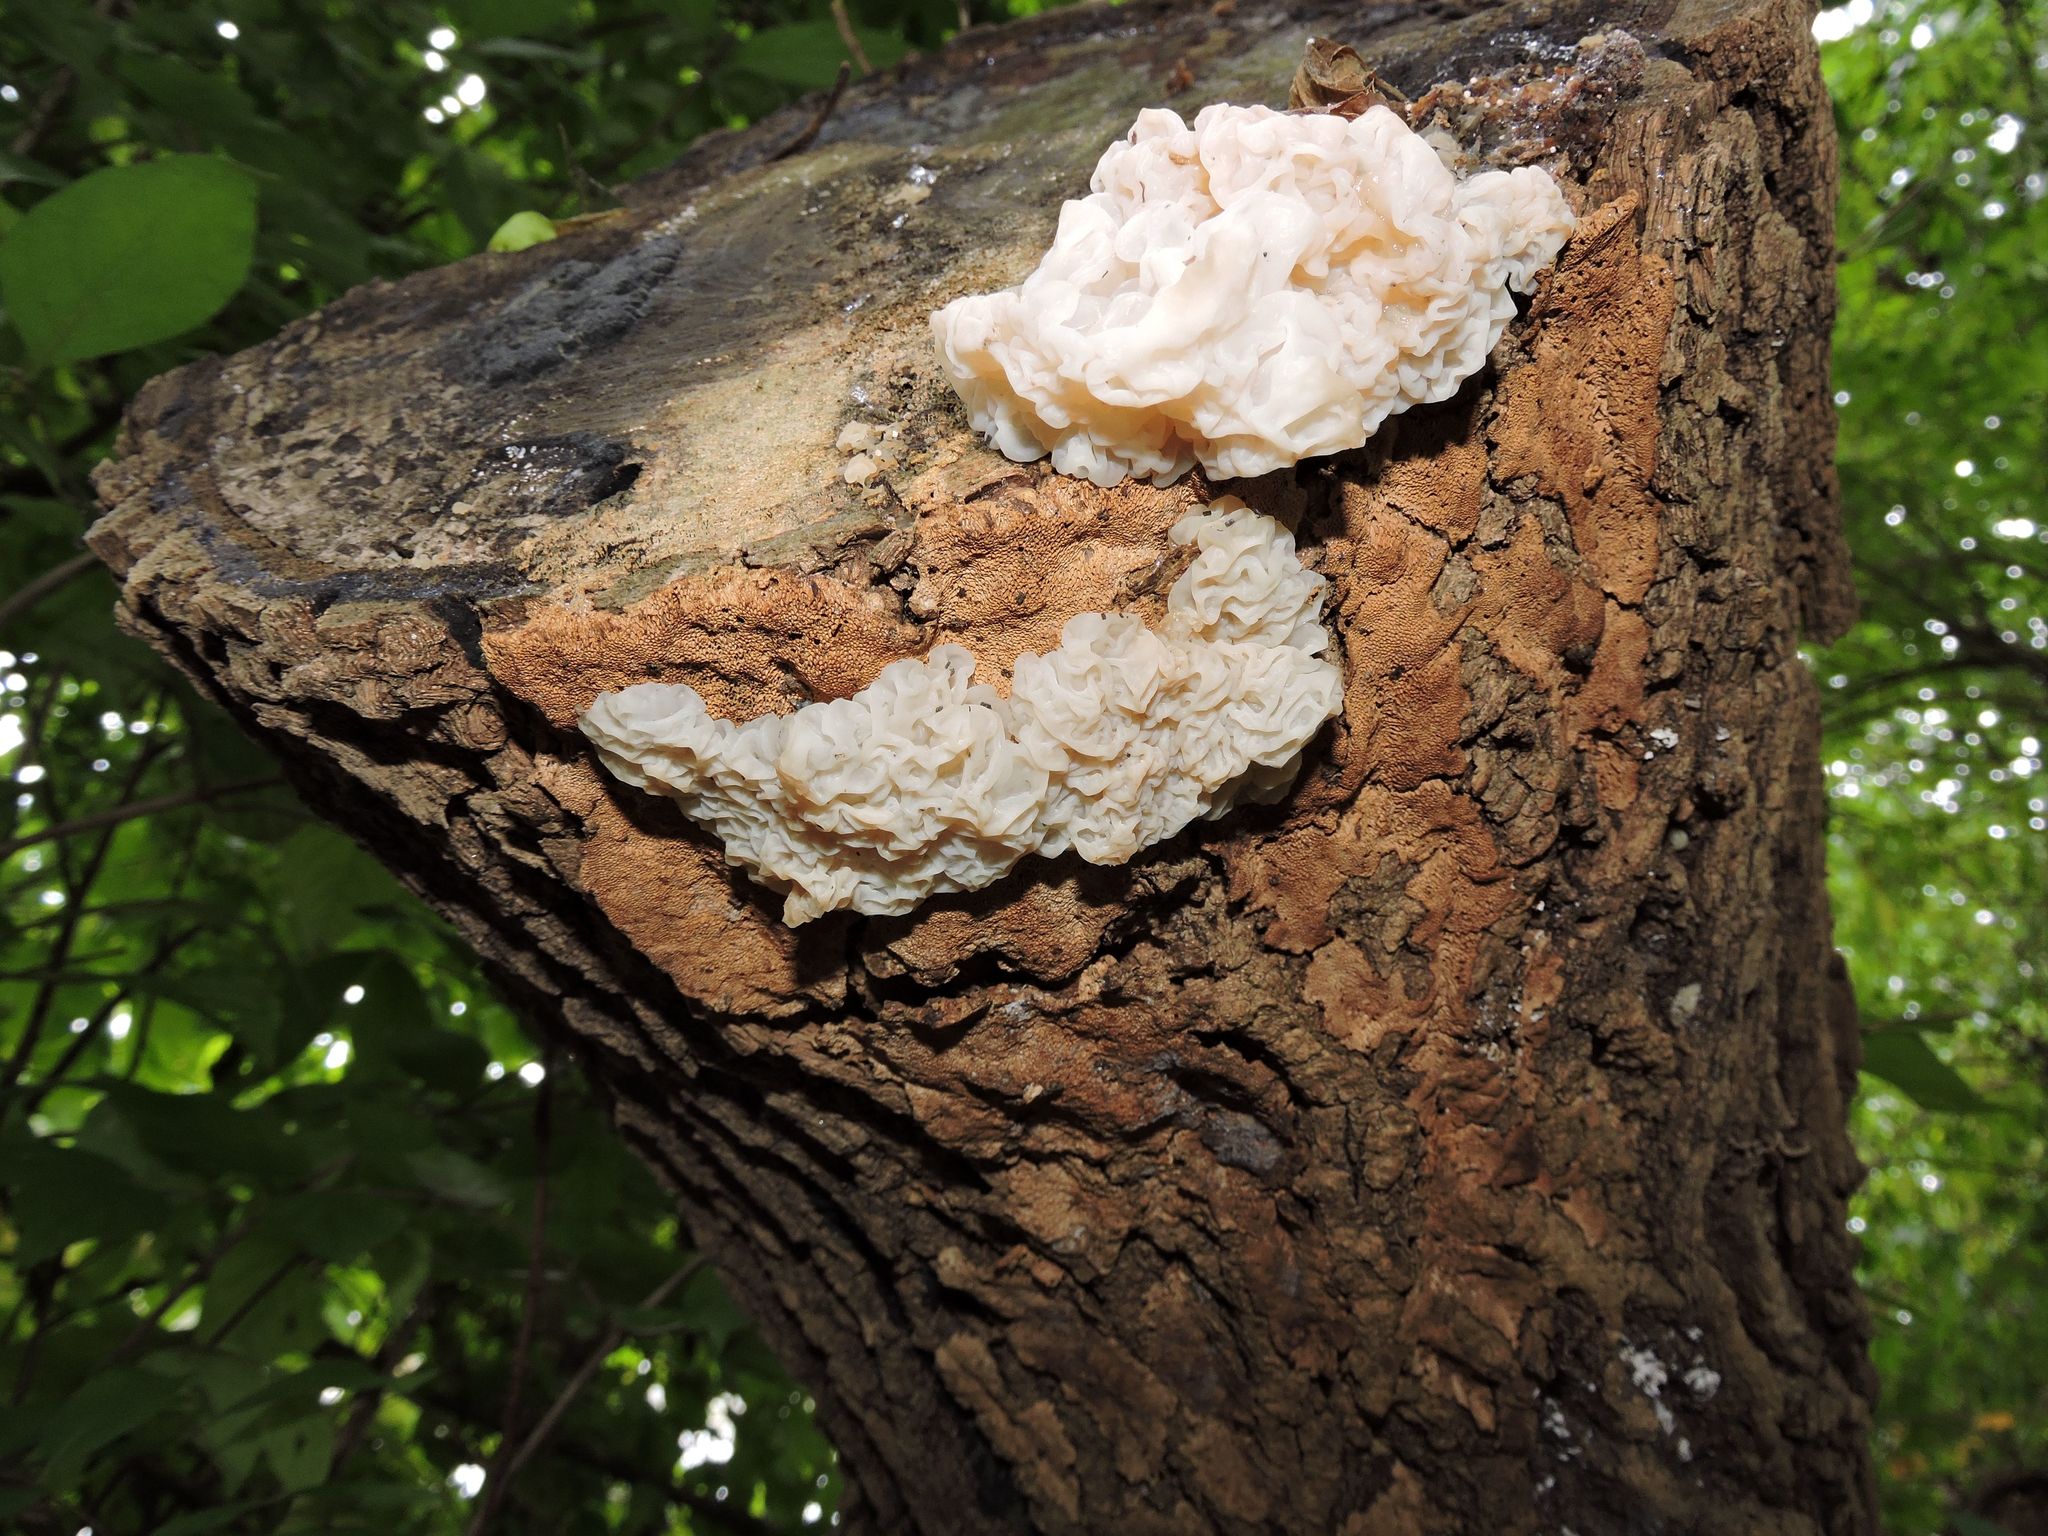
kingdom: Fungi
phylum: Basidiomycota
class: Agaricomycetes
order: Auriculariales
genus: Ductifera
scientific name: Ductifera pululahuana
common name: White jelly fungus
